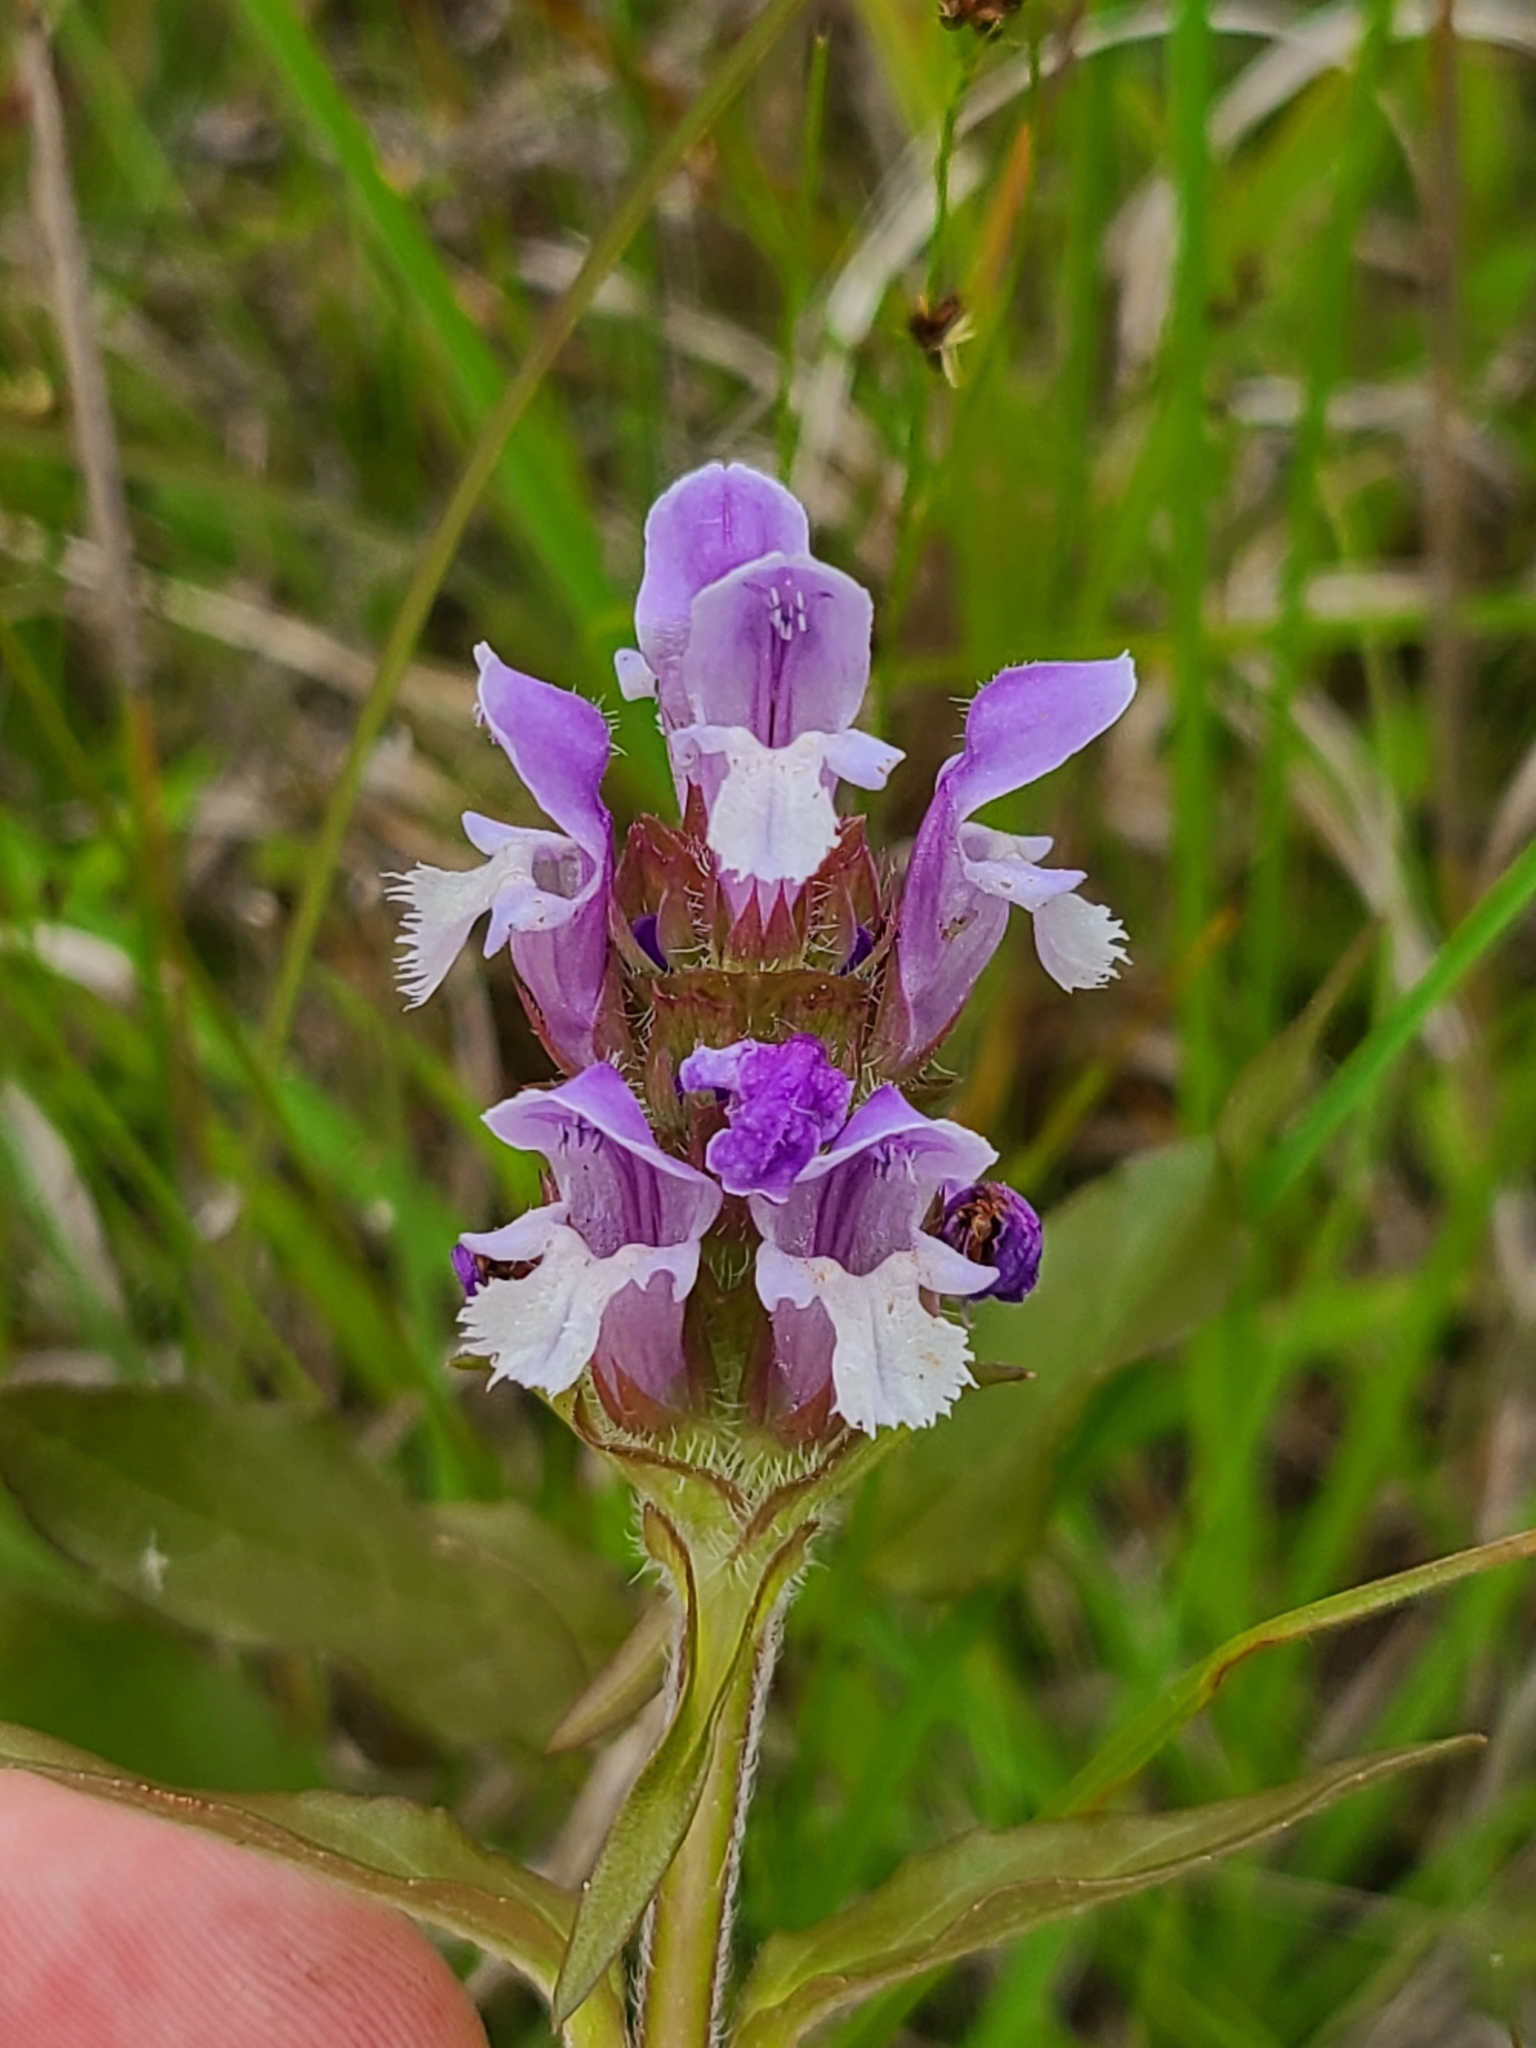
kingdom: Plantae
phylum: Tracheophyta
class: Magnoliopsida
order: Lamiales
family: Lamiaceae
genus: Prunella
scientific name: Prunella vulgaris
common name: Heal-all
